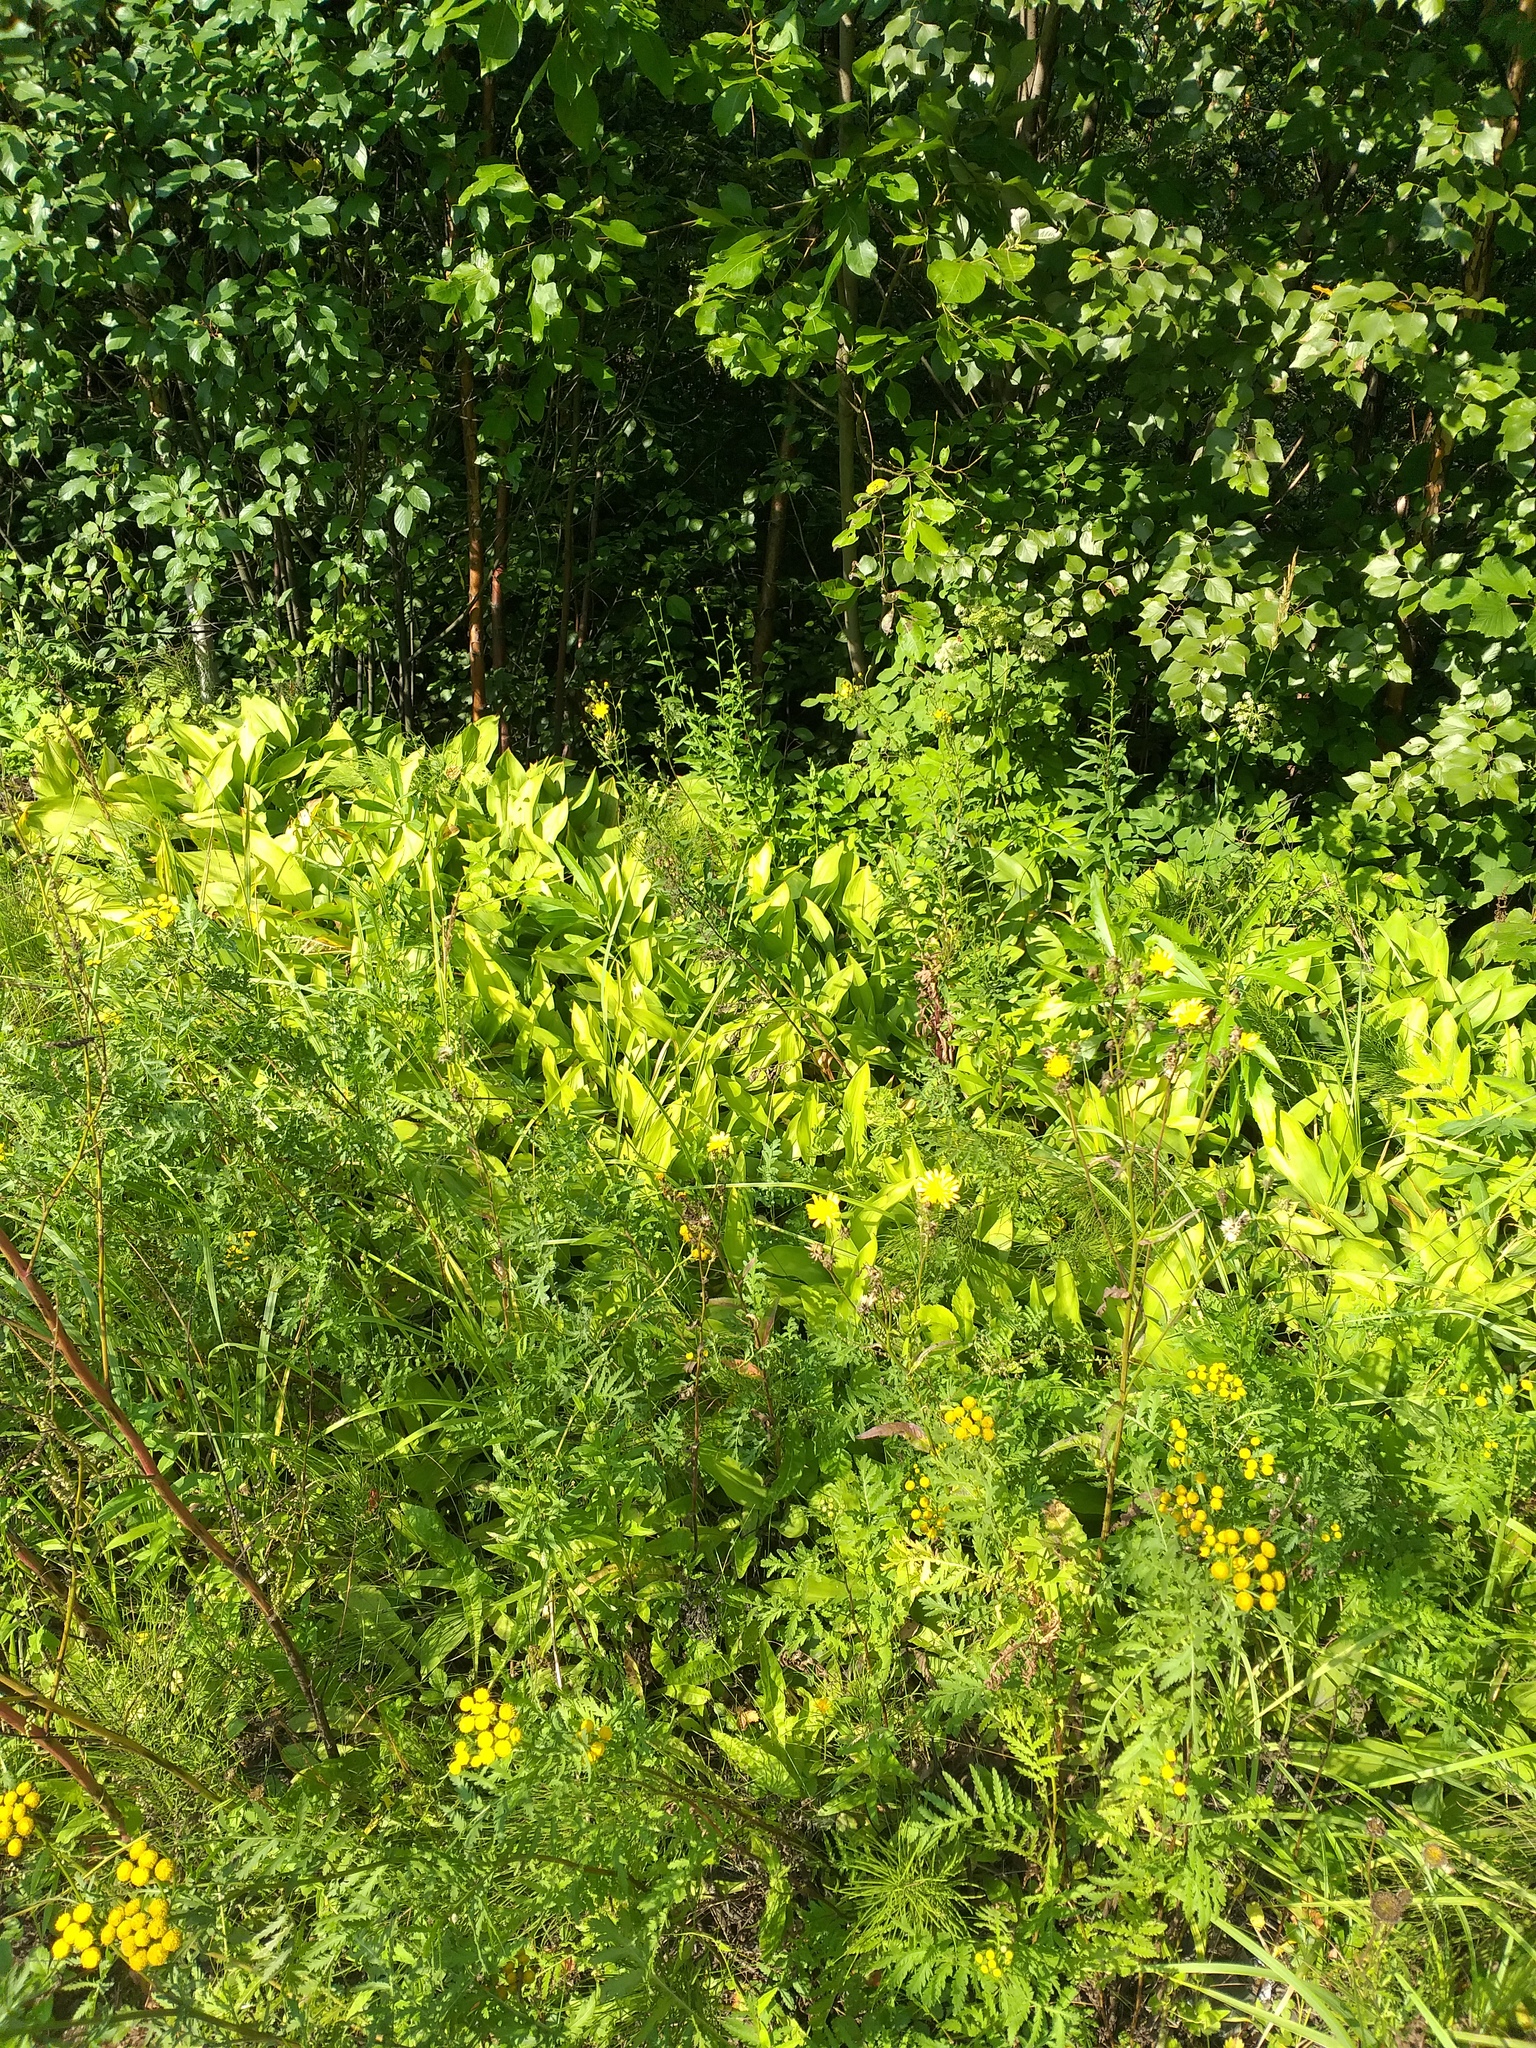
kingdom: Plantae
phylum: Tracheophyta
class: Liliopsida
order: Asparagales
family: Asparagaceae
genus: Convallaria
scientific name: Convallaria majalis
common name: Lily-of-the-valley
